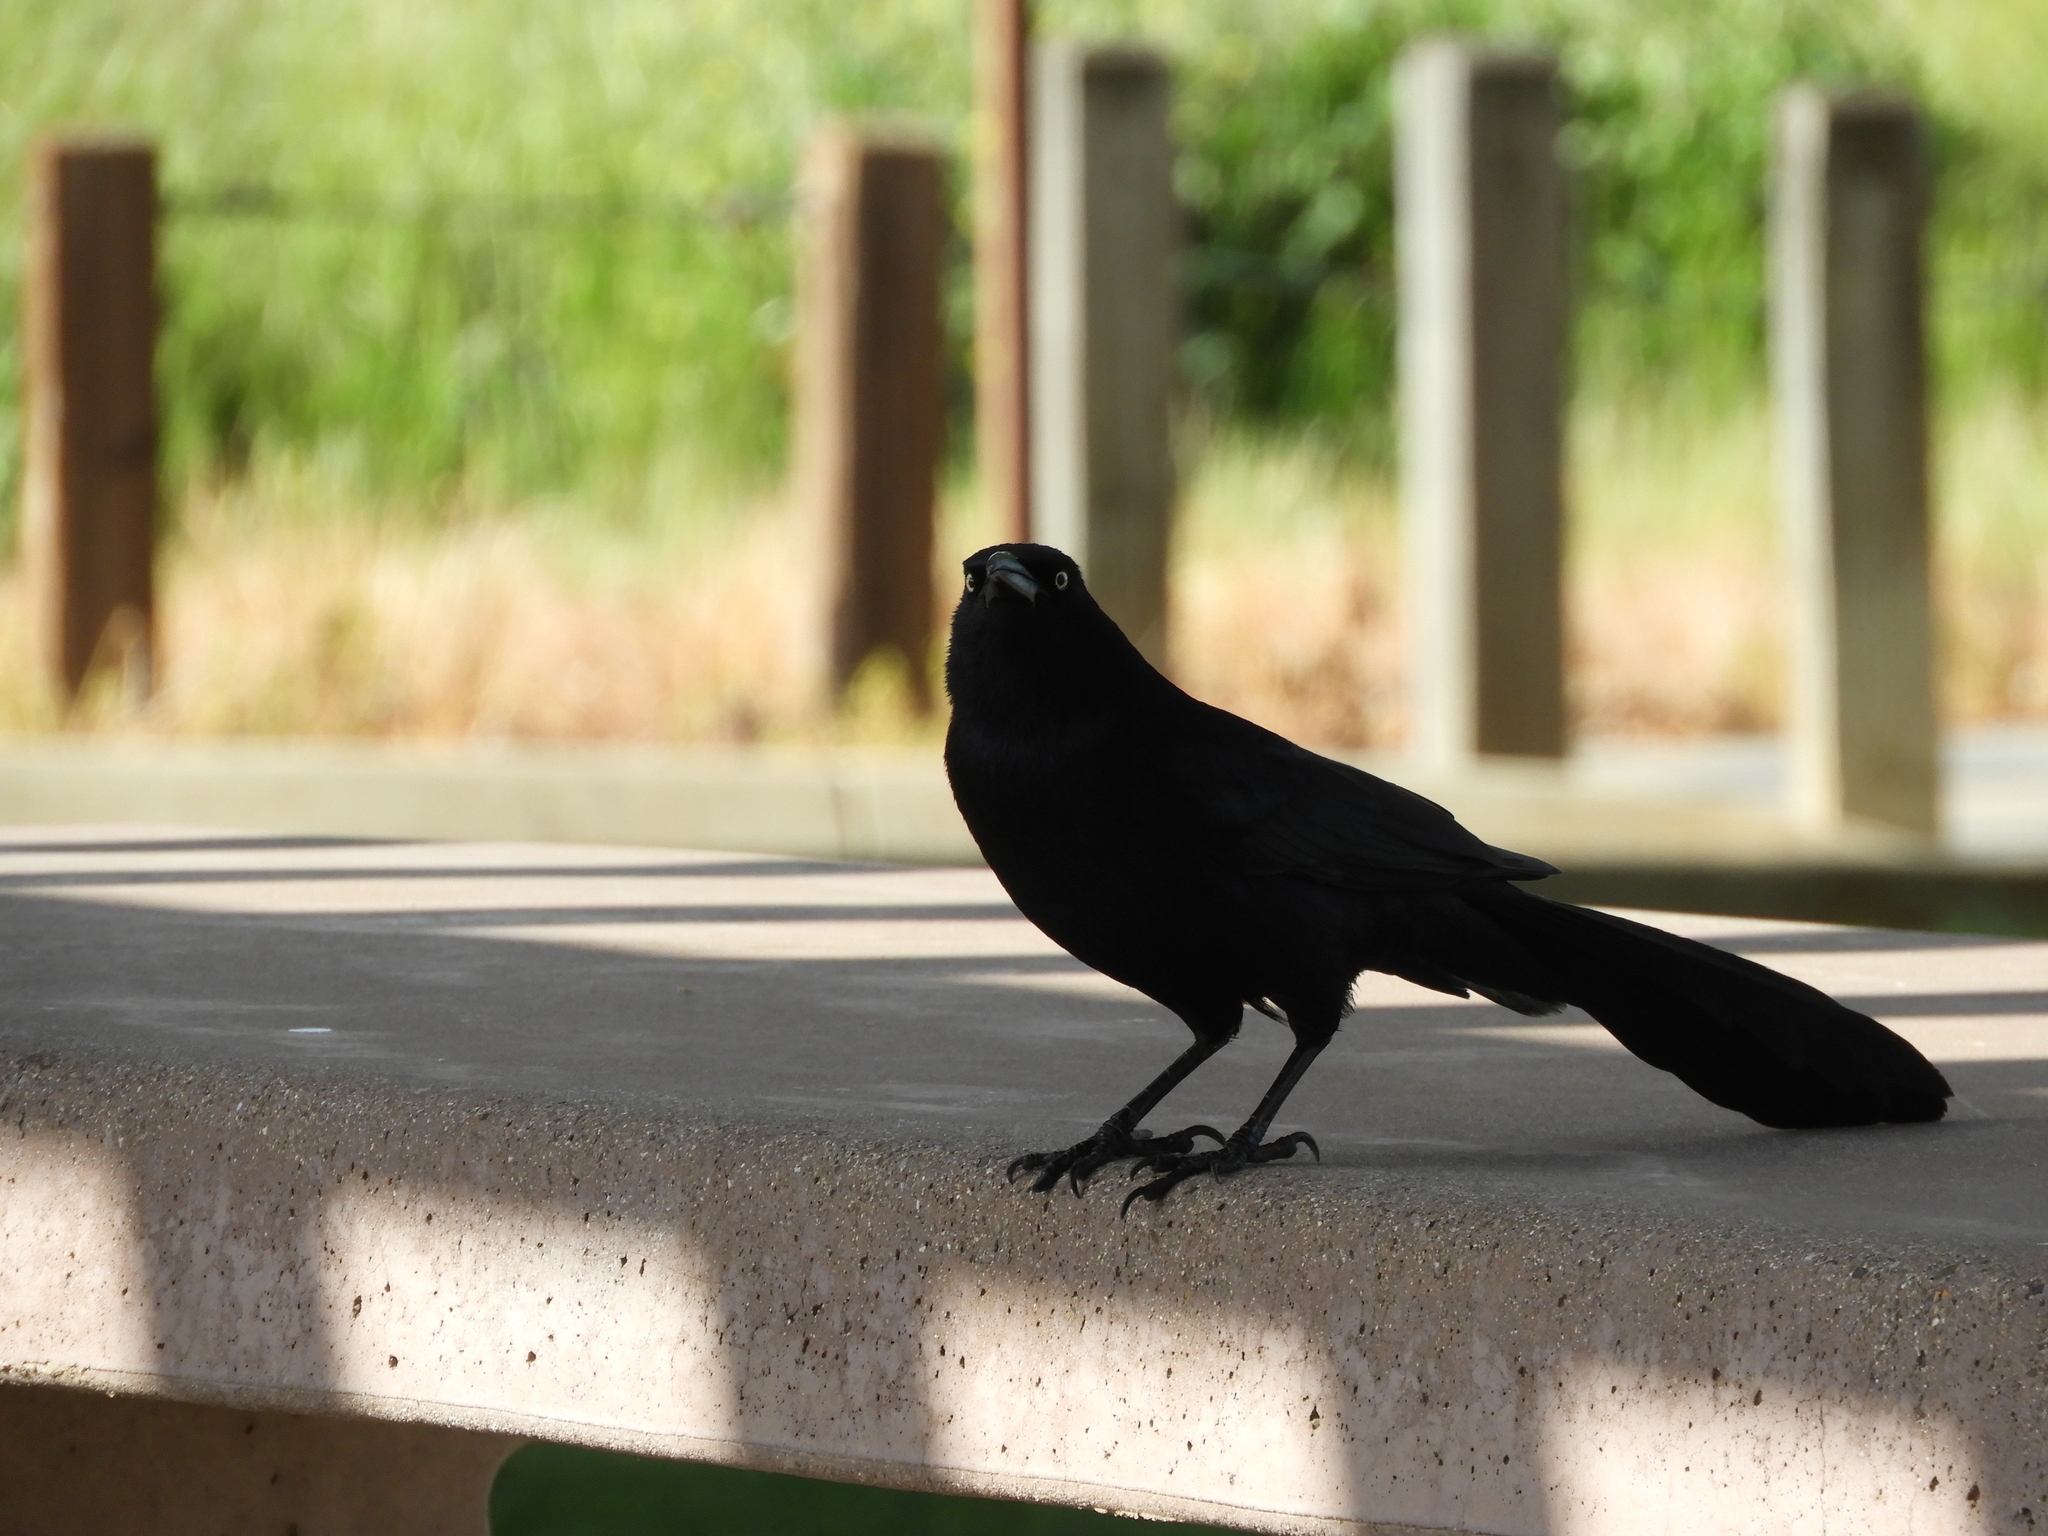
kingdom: Animalia
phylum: Chordata
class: Aves
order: Passeriformes
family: Icteridae
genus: Quiscalus
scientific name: Quiscalus mexicanus
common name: Great-tailed grackle
